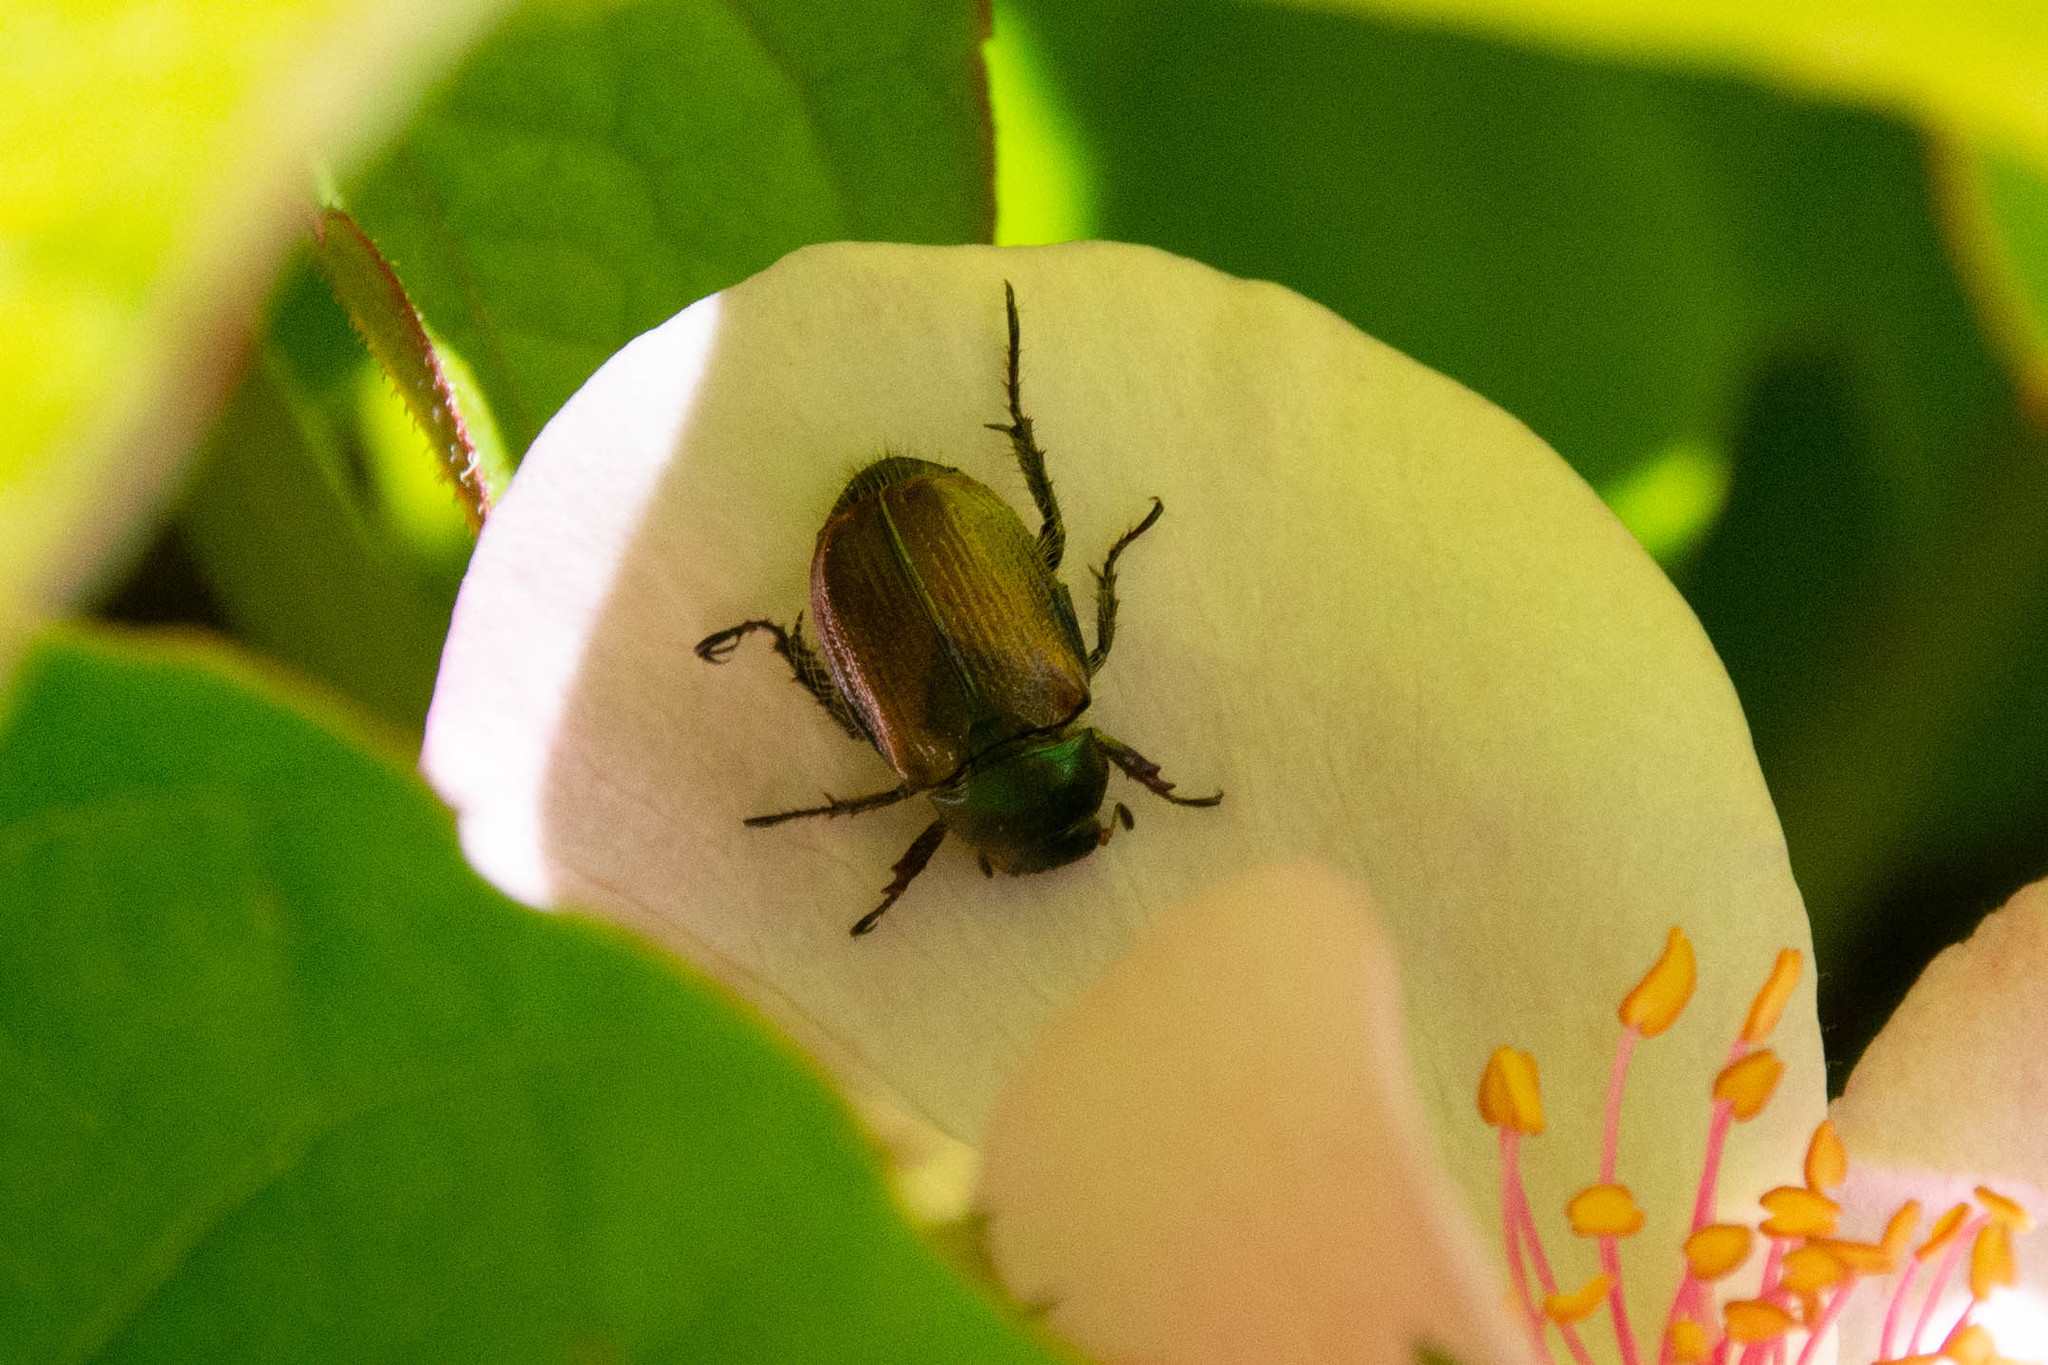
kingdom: Animalia
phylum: Arthropoda
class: Insecta
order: Coleoptera
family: Scarabaeidae
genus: Phyllopertha
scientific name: Phyllopertha horticola
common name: Garden chafer
